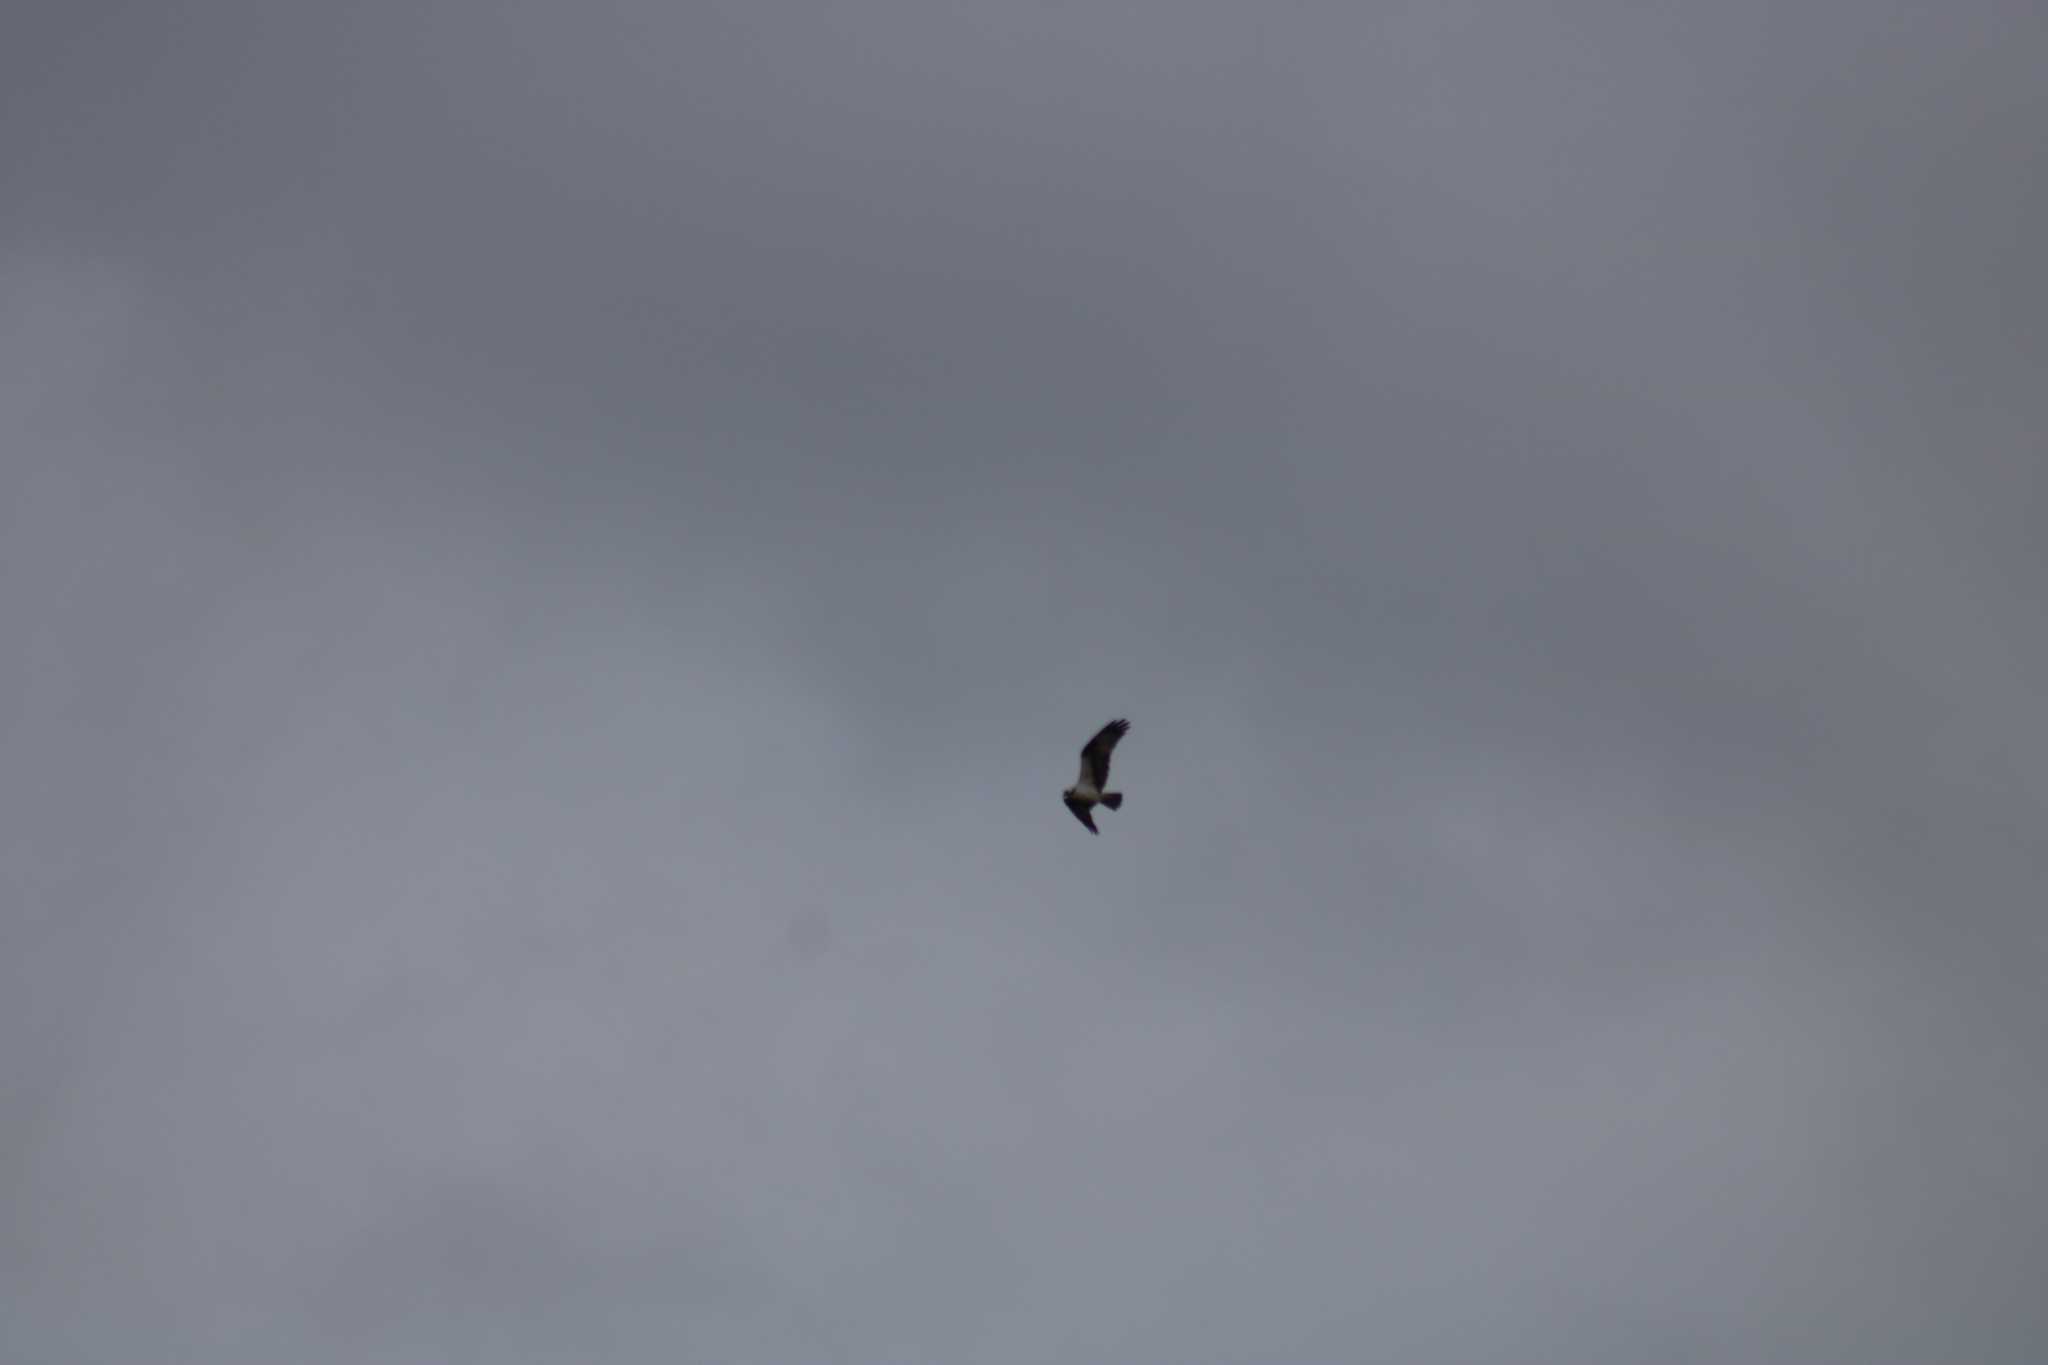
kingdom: Animalia
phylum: Chordata
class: Aves
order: Accipitriformes
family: Pandionidae
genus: Pandion
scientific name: Pandion haliaetus
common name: Osprey
